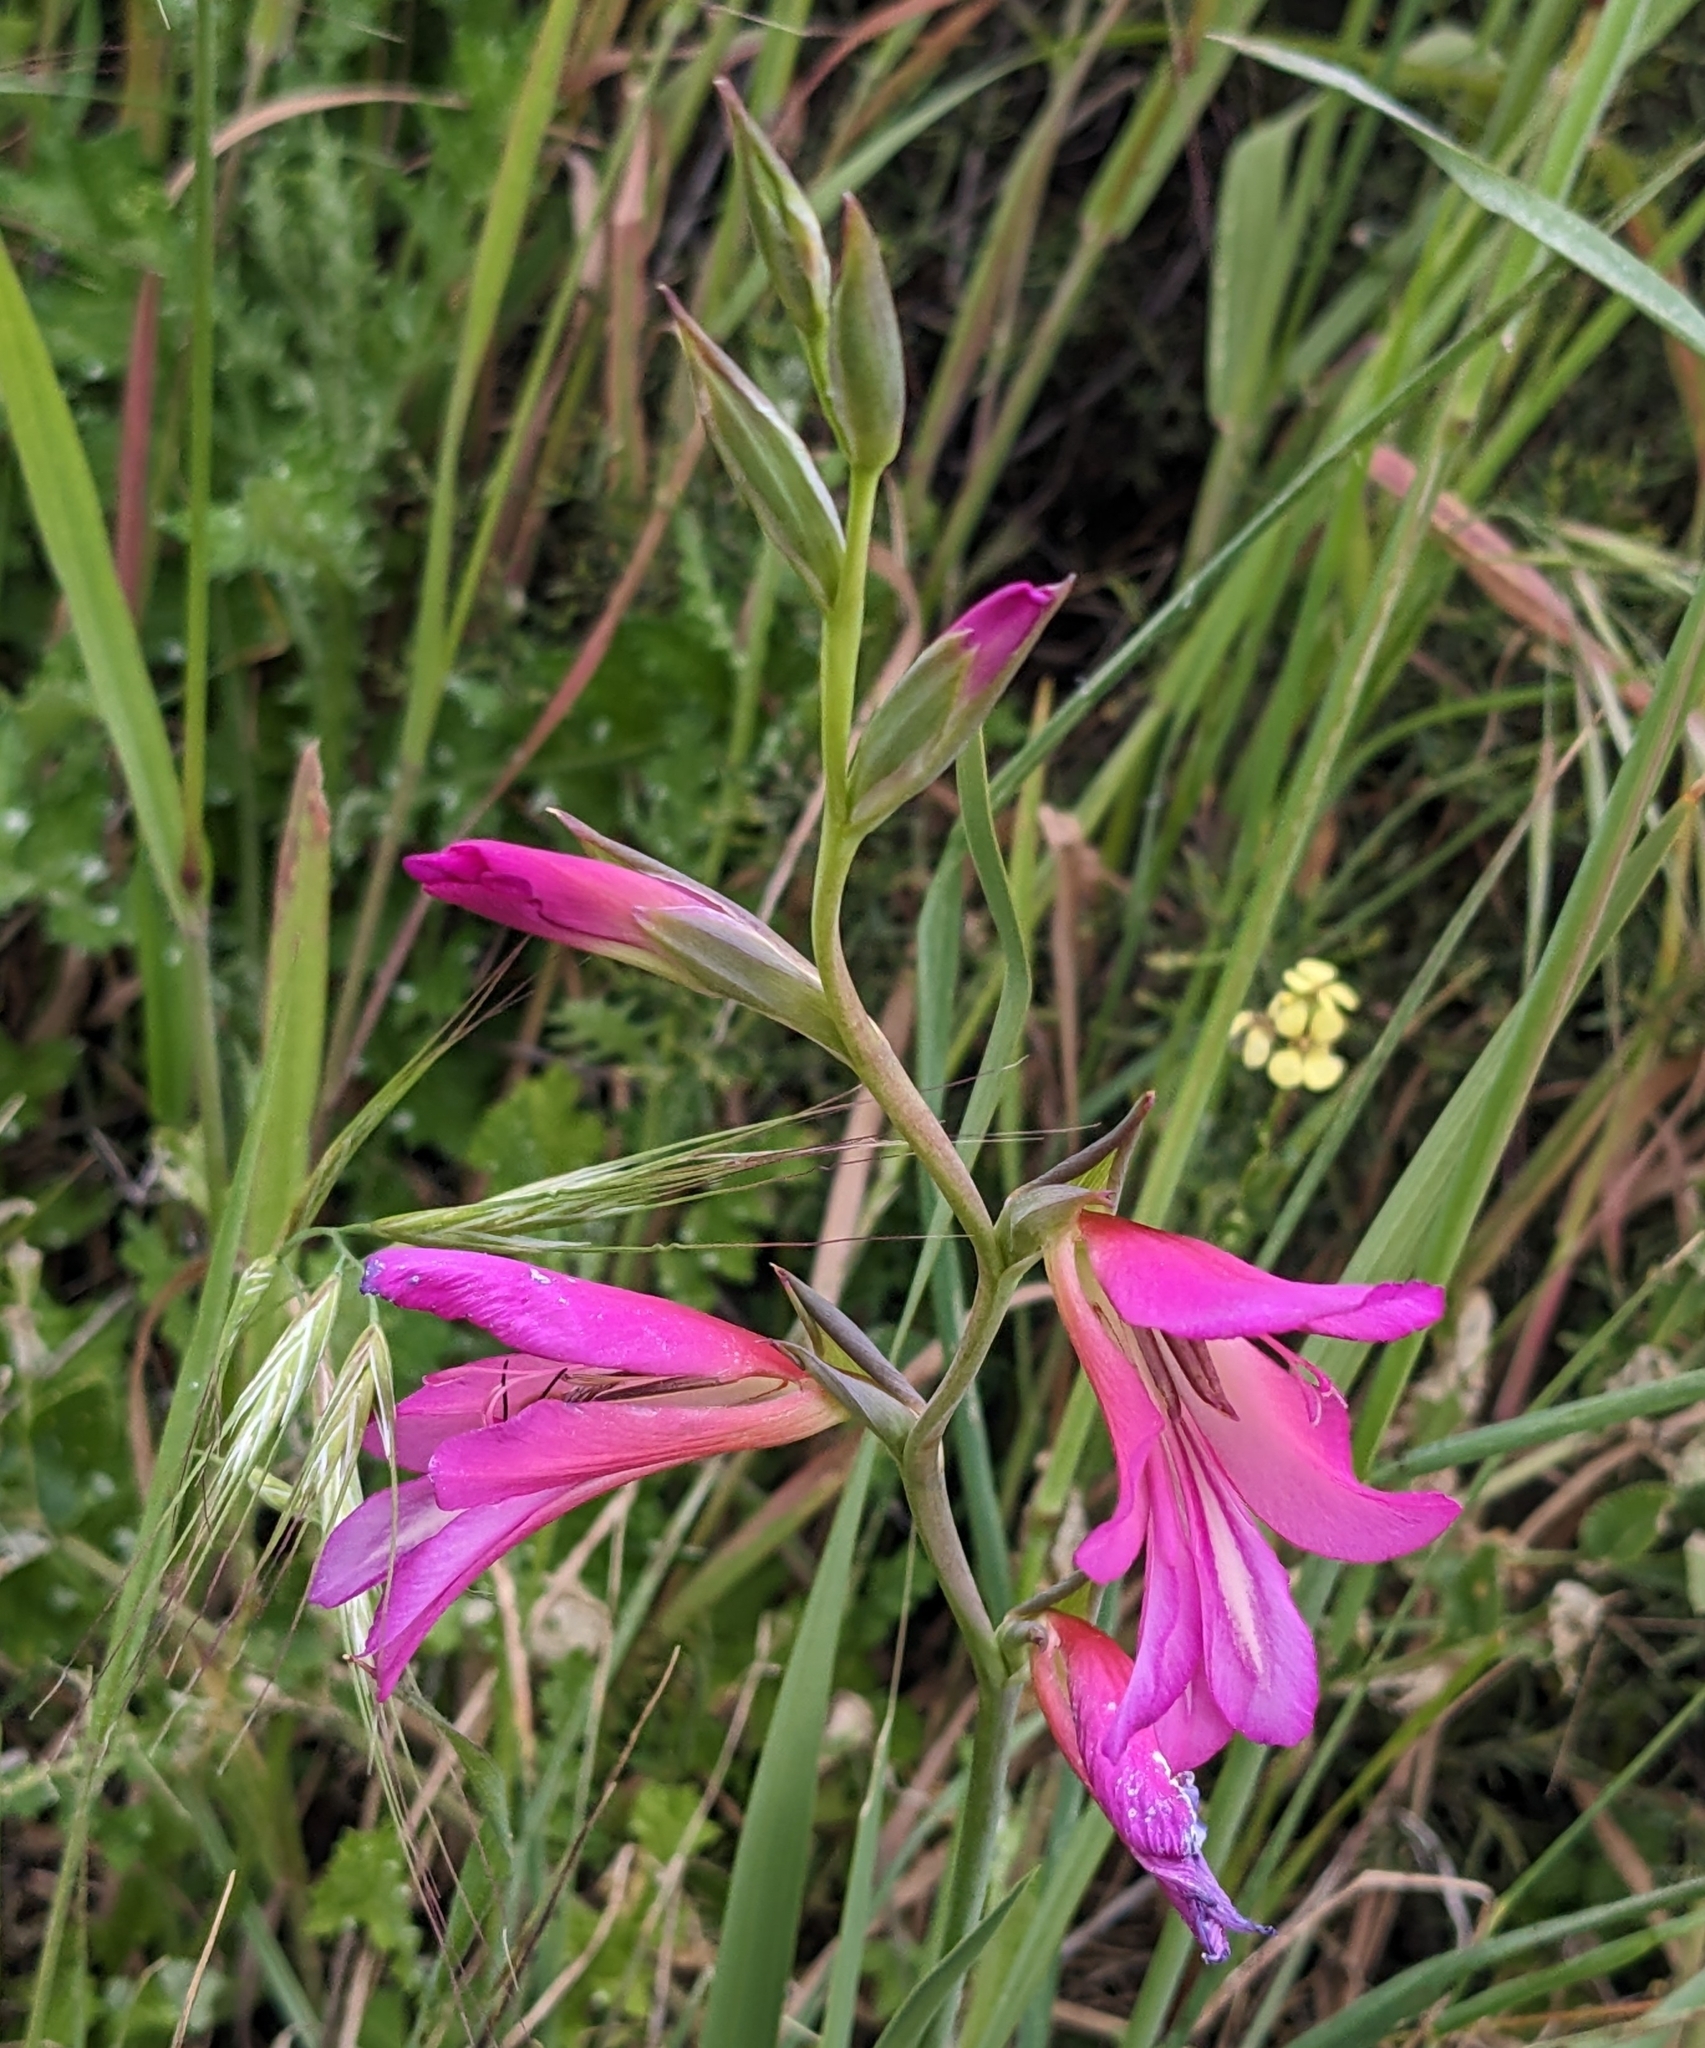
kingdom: Plantae
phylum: Tracheophyta
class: Liliopsida
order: Asparagales
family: Iridaceae
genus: Gladiolus
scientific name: Gladiolus italicus
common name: Field gladiolus
